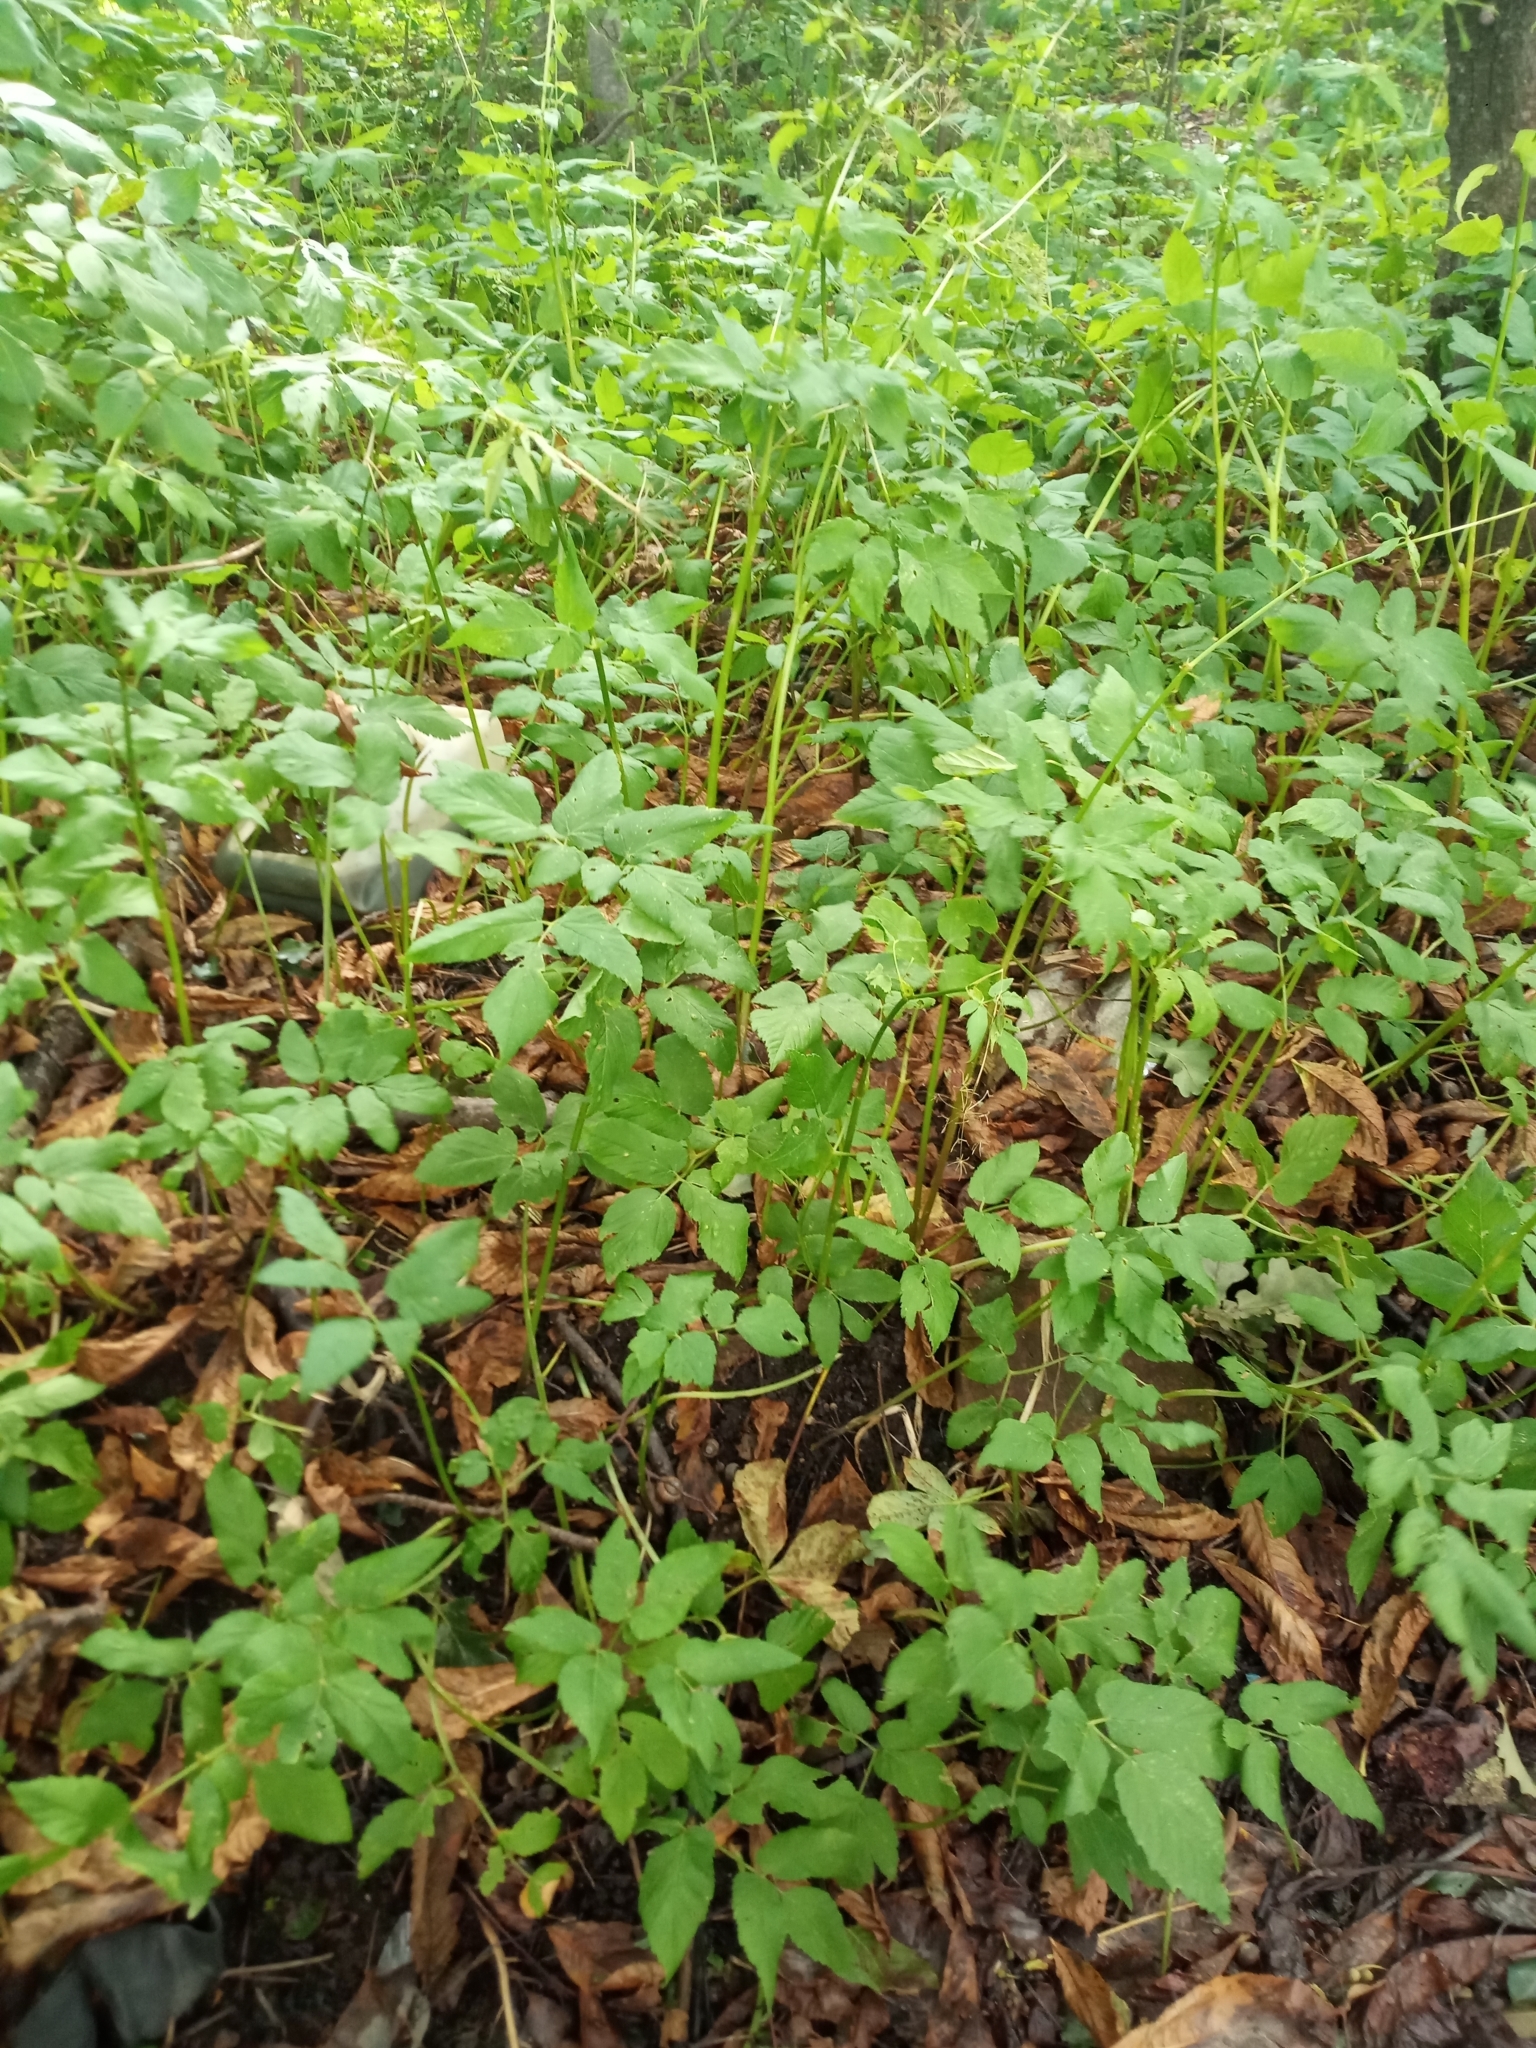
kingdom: Plantae
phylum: Tracheophyta
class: Magnoliopsida
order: Apiales
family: Apiaceae
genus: Aegopodium
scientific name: Aegopodium podagraria
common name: Ground-elder
